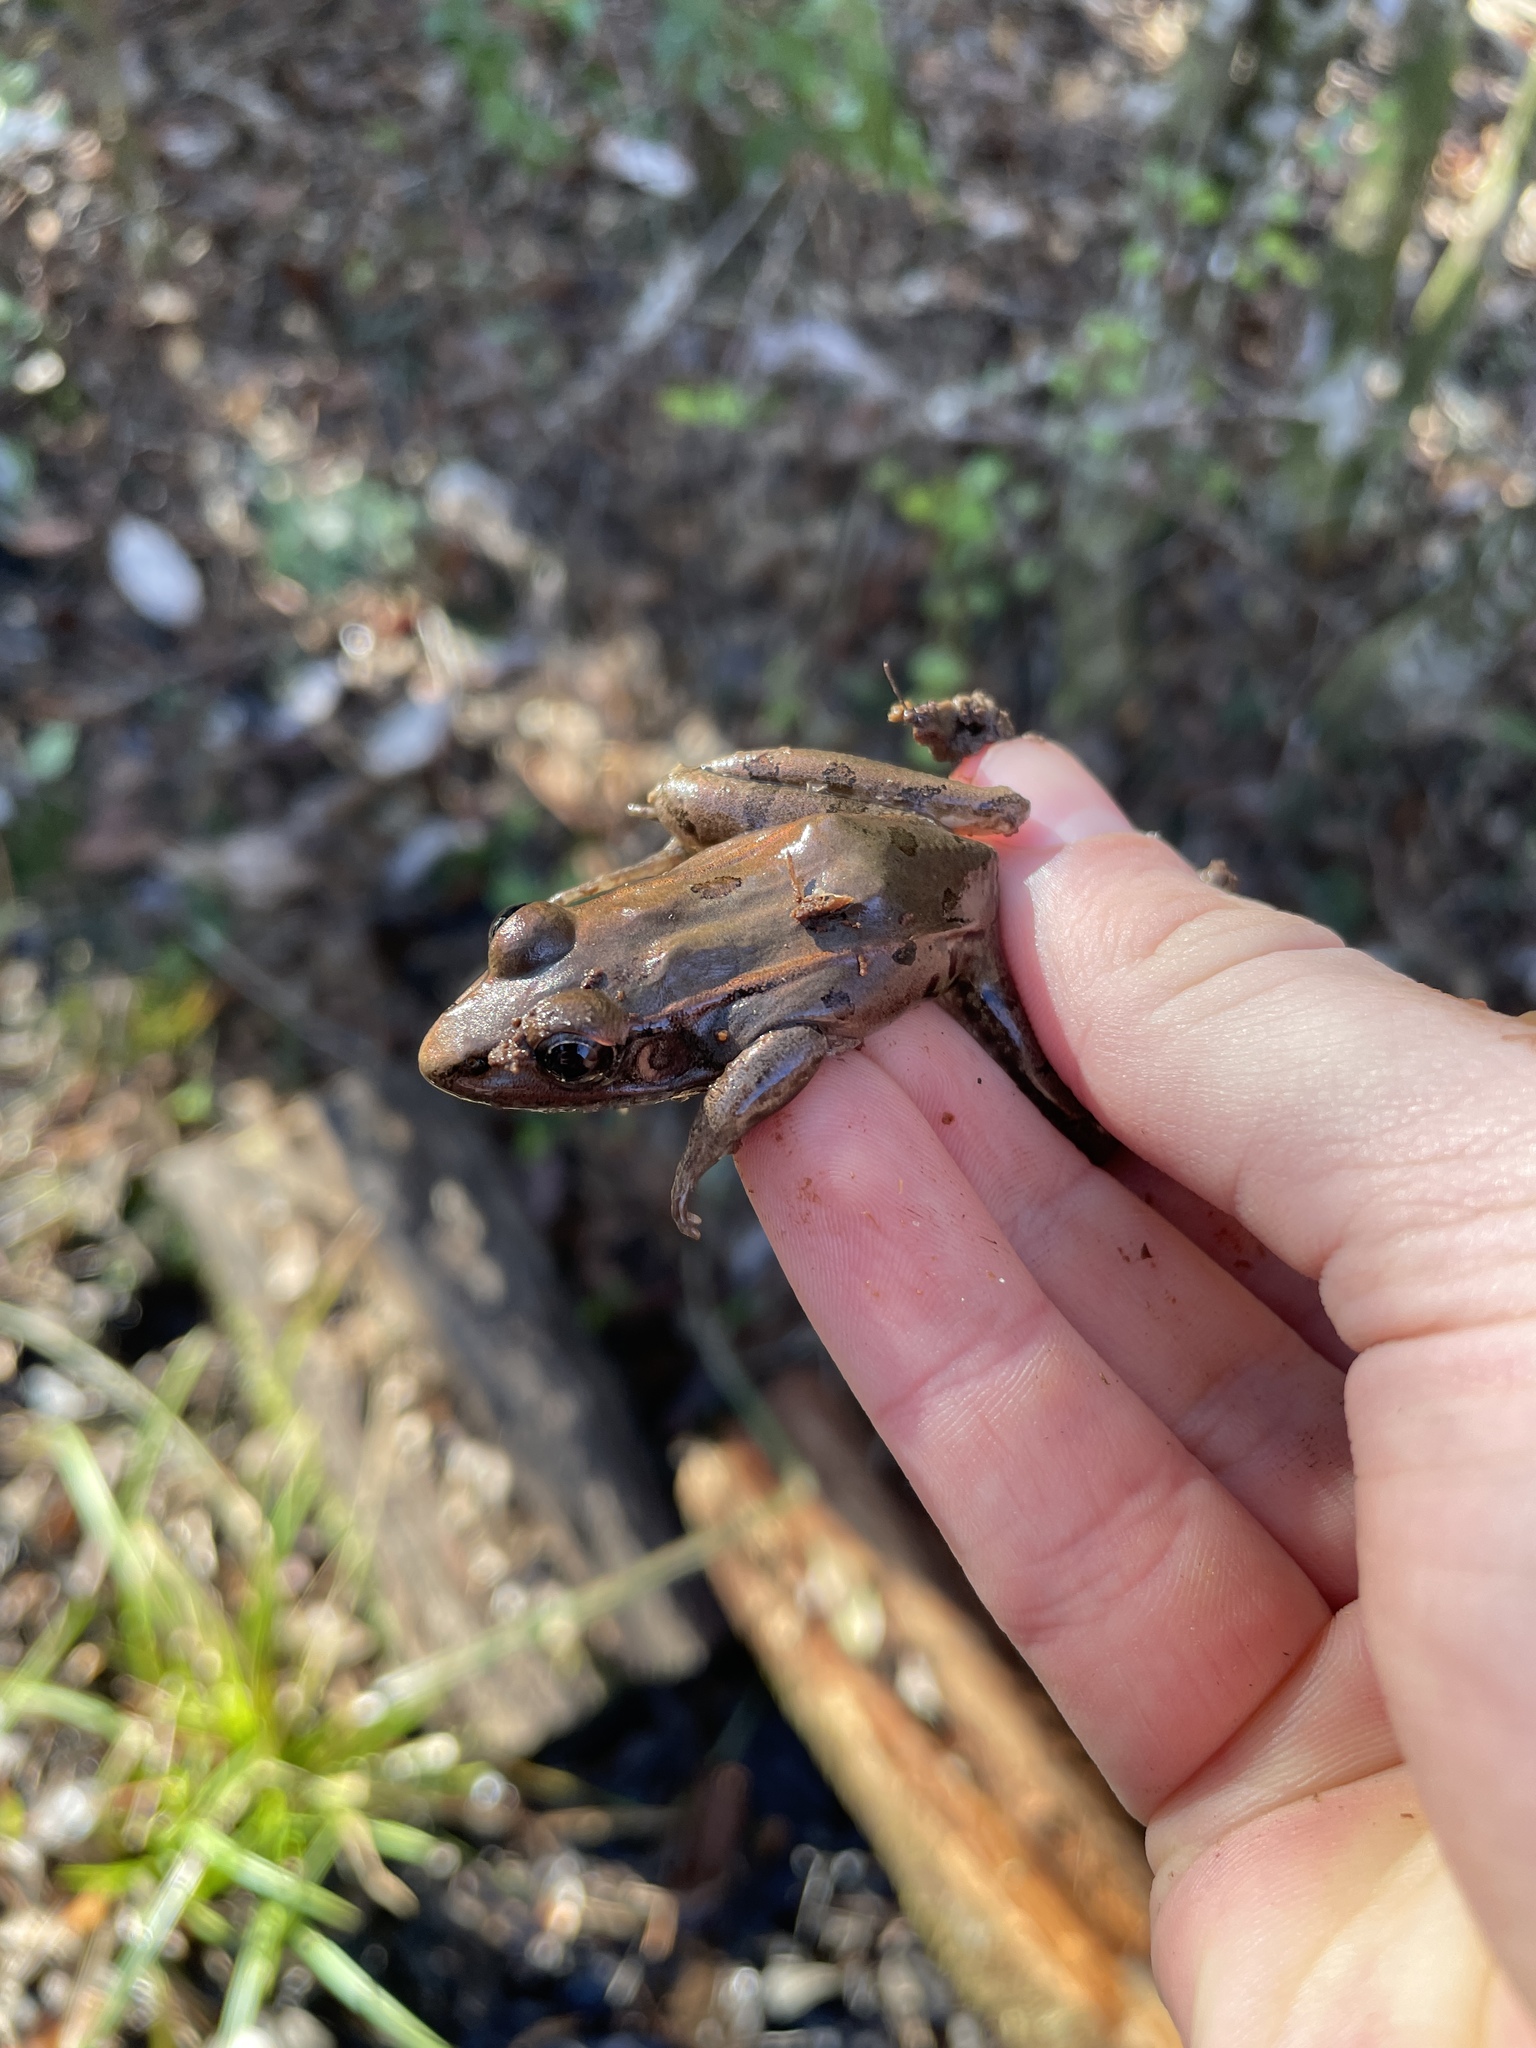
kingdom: Animalia
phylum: Chordata
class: Amphibia
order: Anura
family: Ranidae
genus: Lithobates
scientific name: Lithobates sphenocephalus
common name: Southern leopard frog
